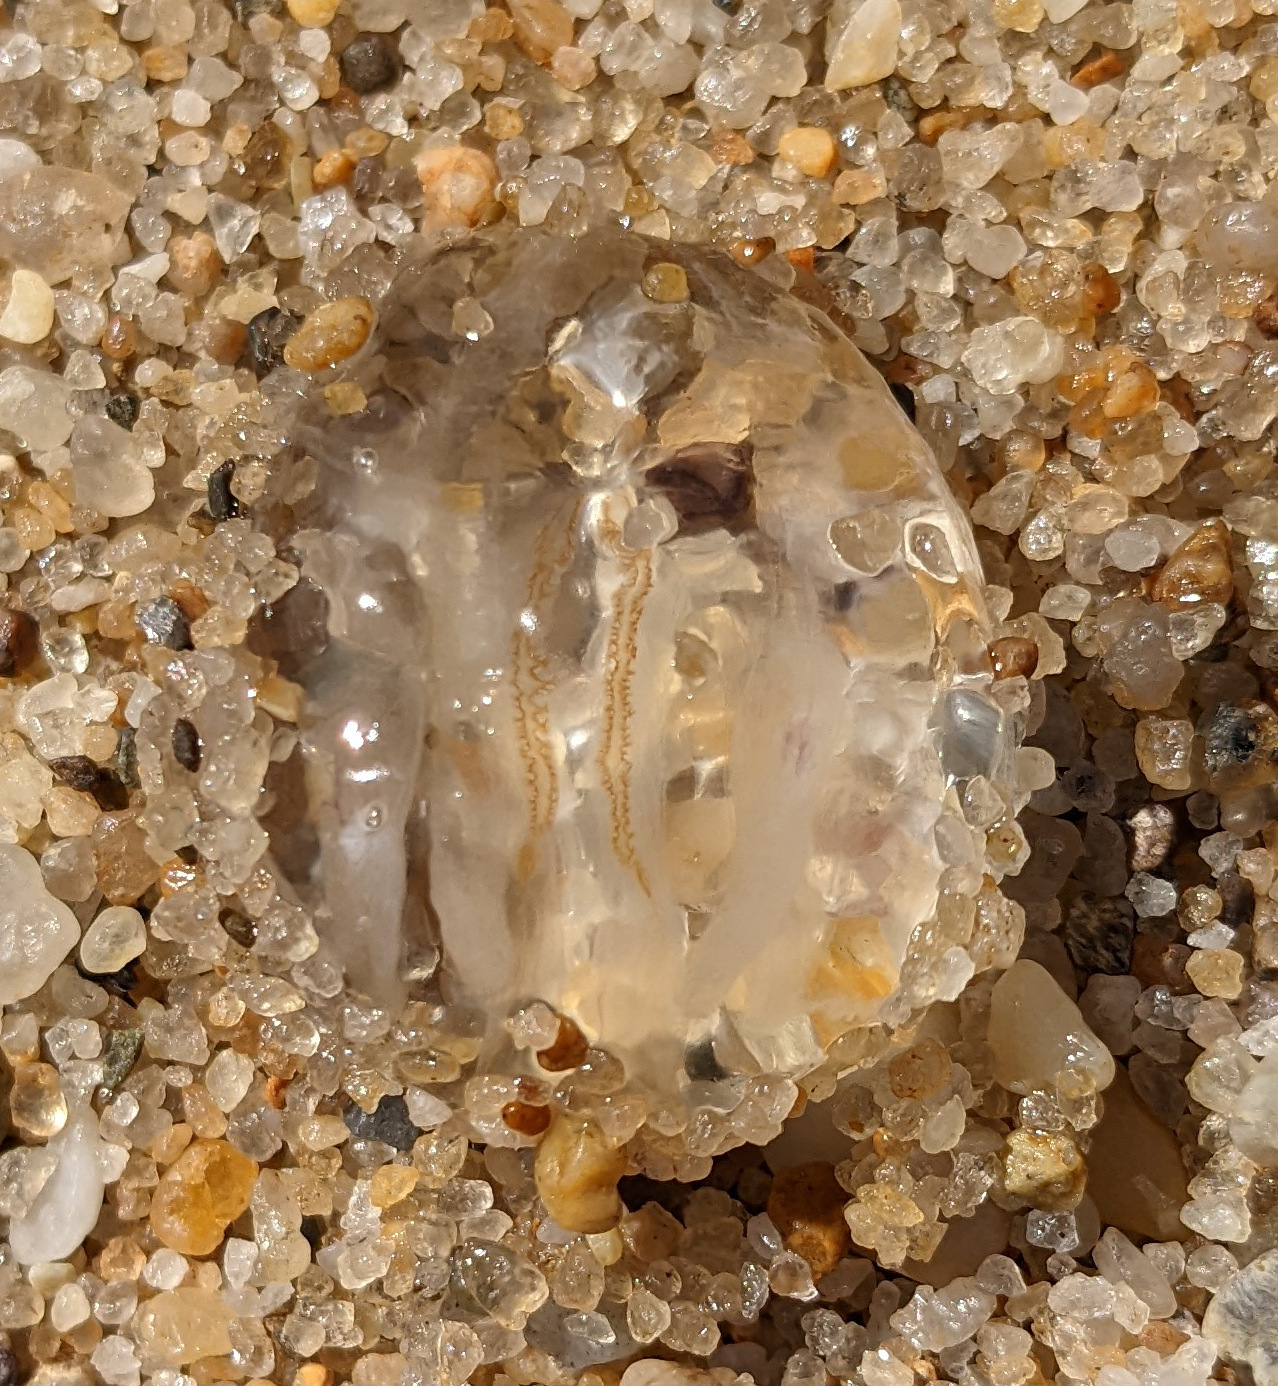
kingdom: Animalia
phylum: Ctenophora
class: Tentaculata
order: Cydippida
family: Pleurobrachiidae
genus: Pleurobrachia
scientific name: Pleurobrachia pileus
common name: Sea gooseberry
